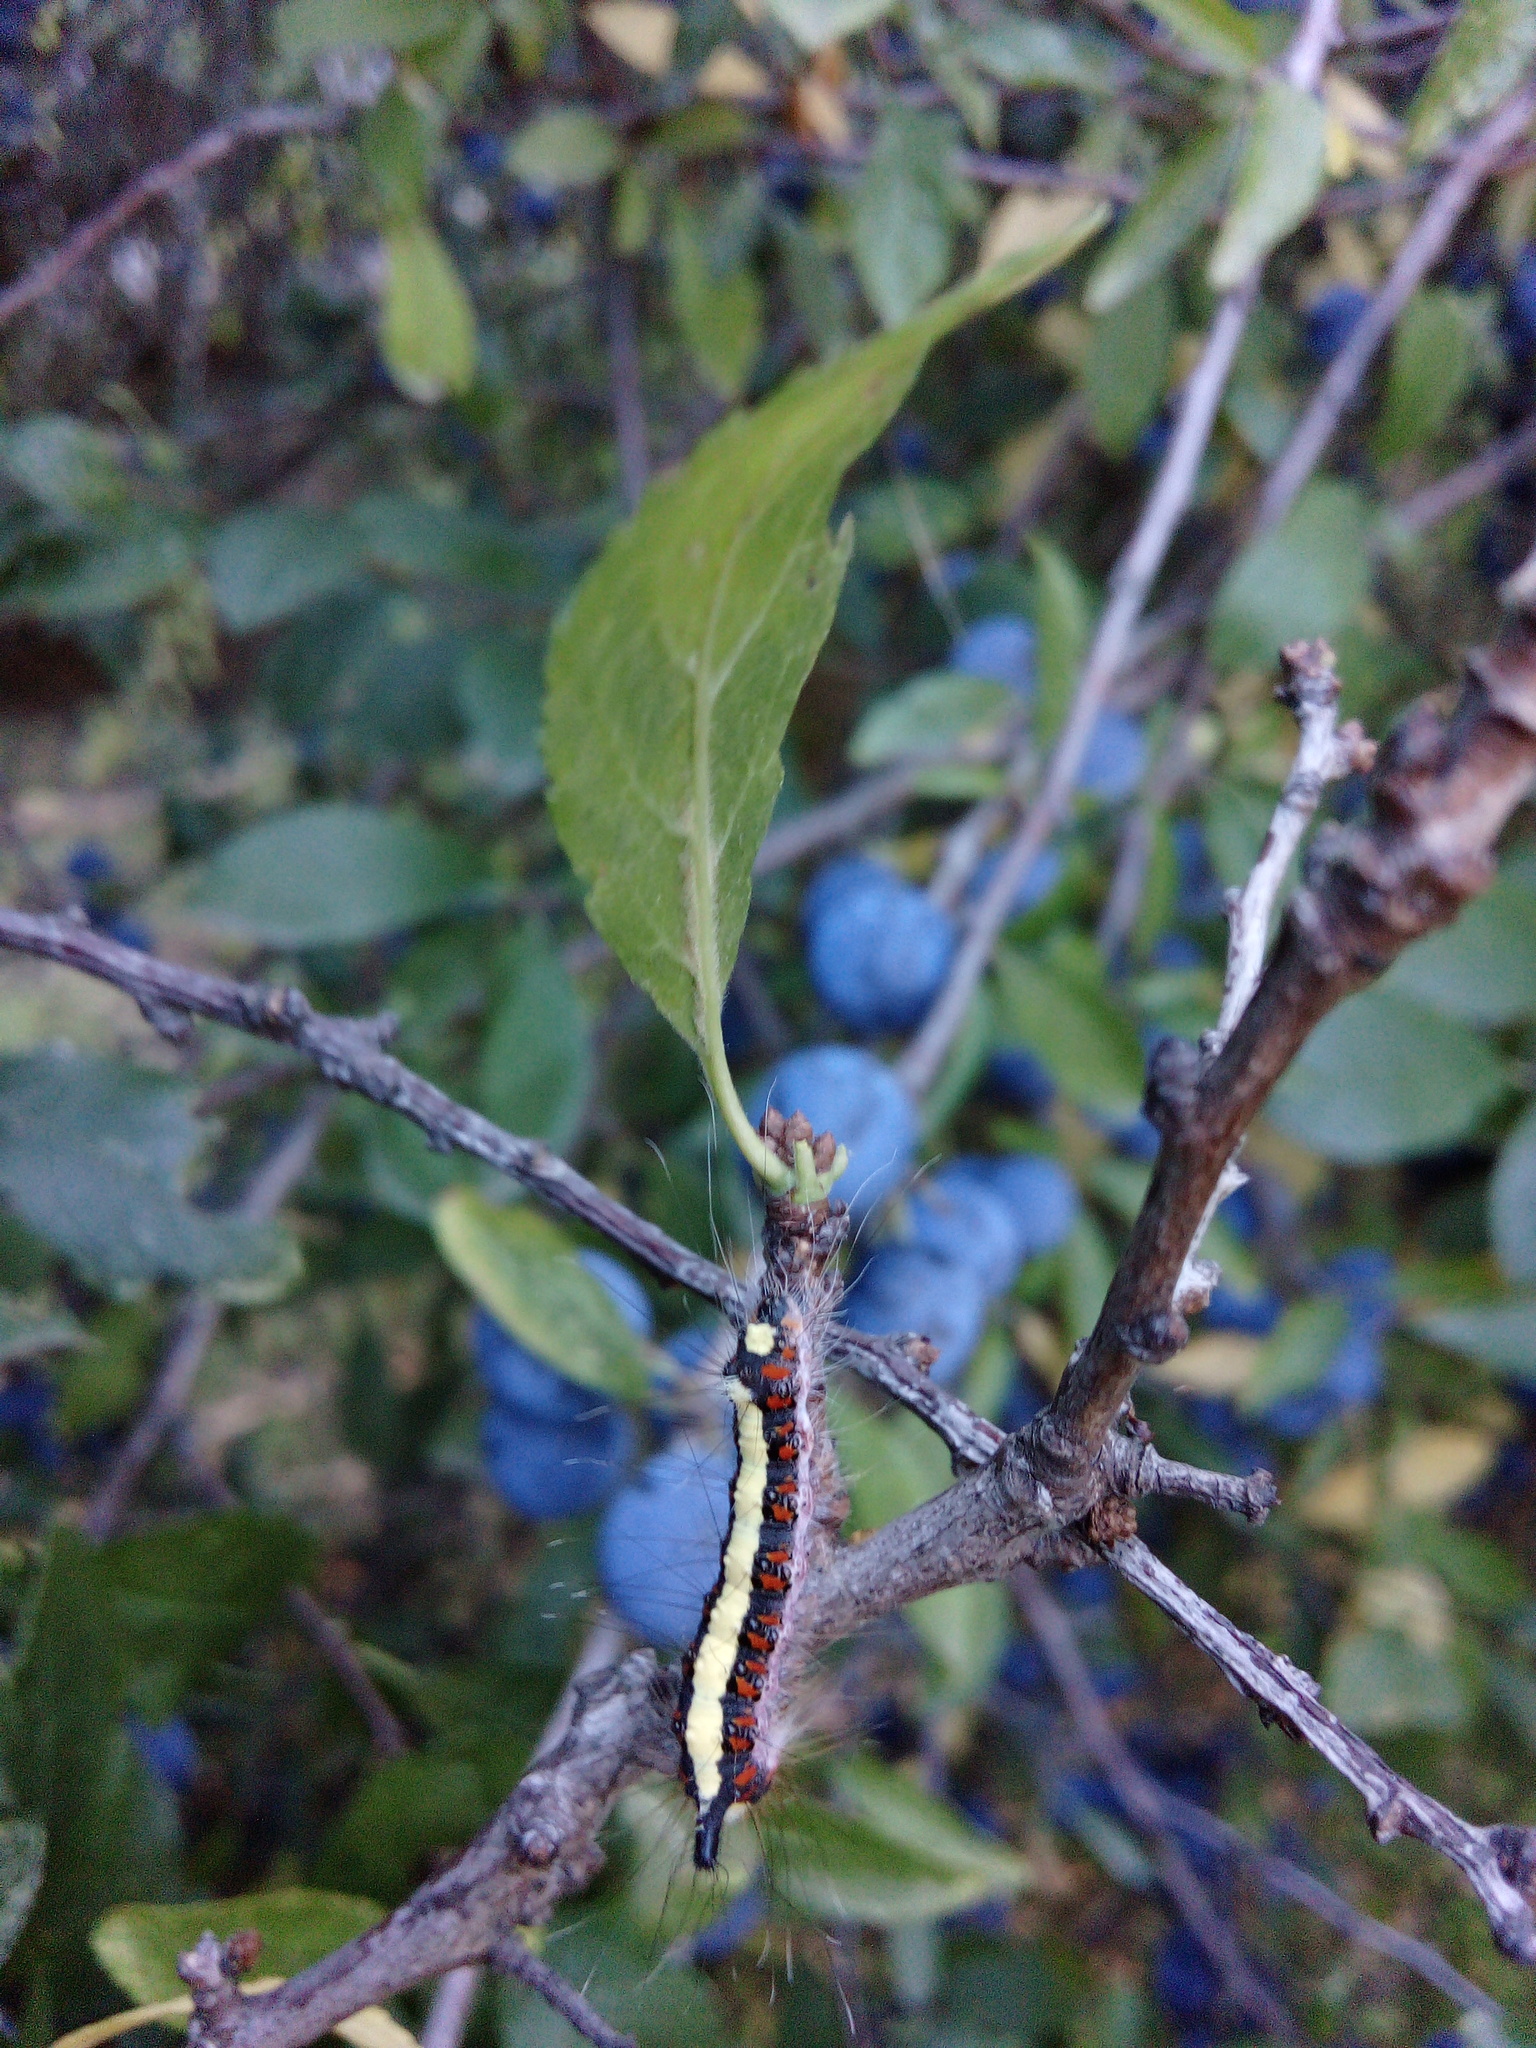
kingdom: Animalia
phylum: Arthropoda
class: Insecta
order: Lepidoptera
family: Noctuidae
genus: Acronicta
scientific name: Acronicta psi
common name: Grey dagger
